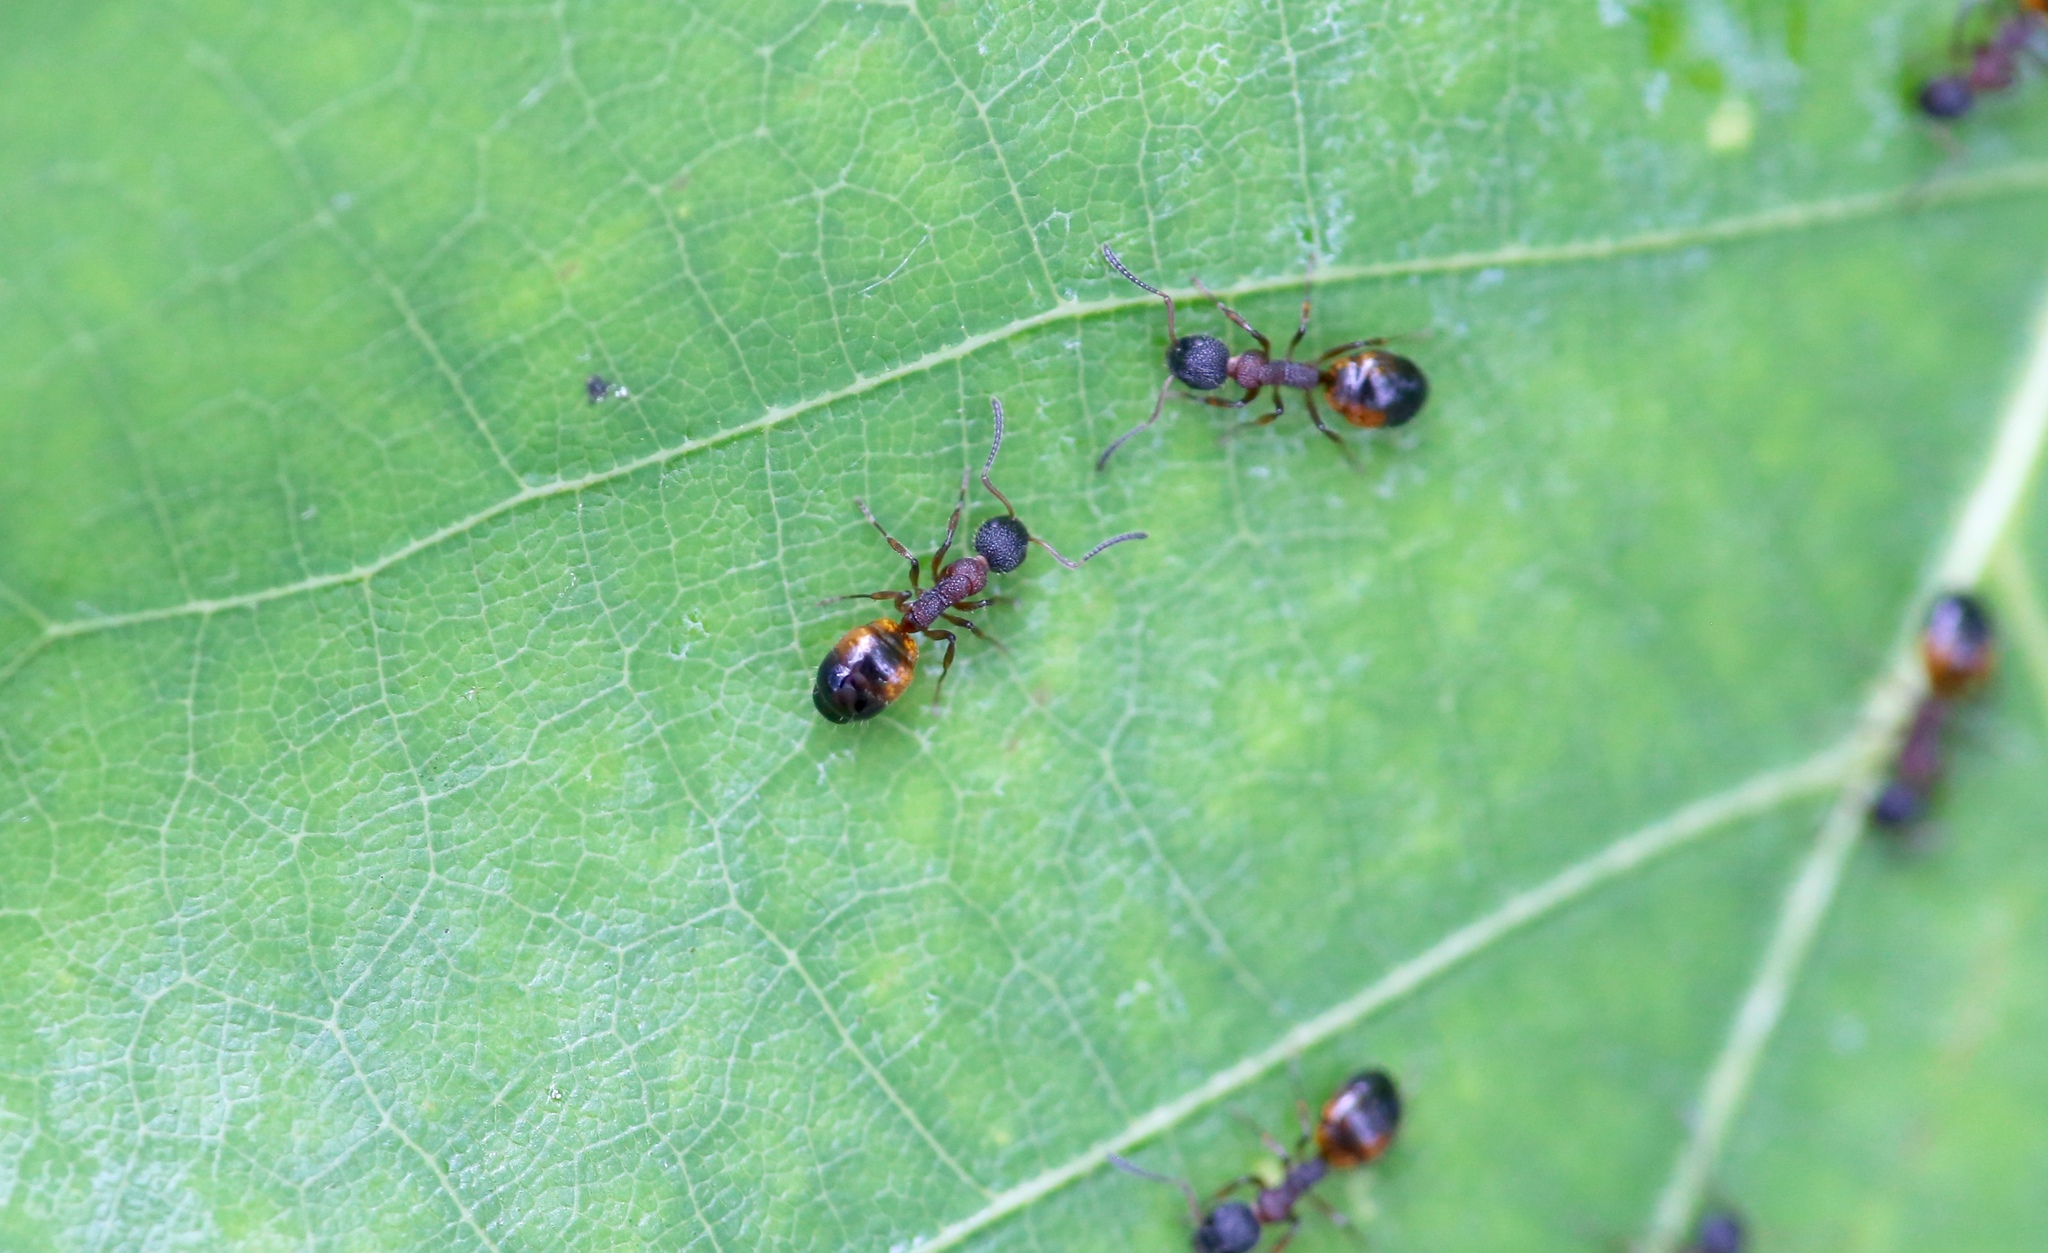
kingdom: Animalia
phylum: Arthropoda
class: Insecta
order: Hymenoptera
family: Formicidae
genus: Dolichoderus
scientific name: Dolichoderus plagiatus
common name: Mottled dolichoderus
